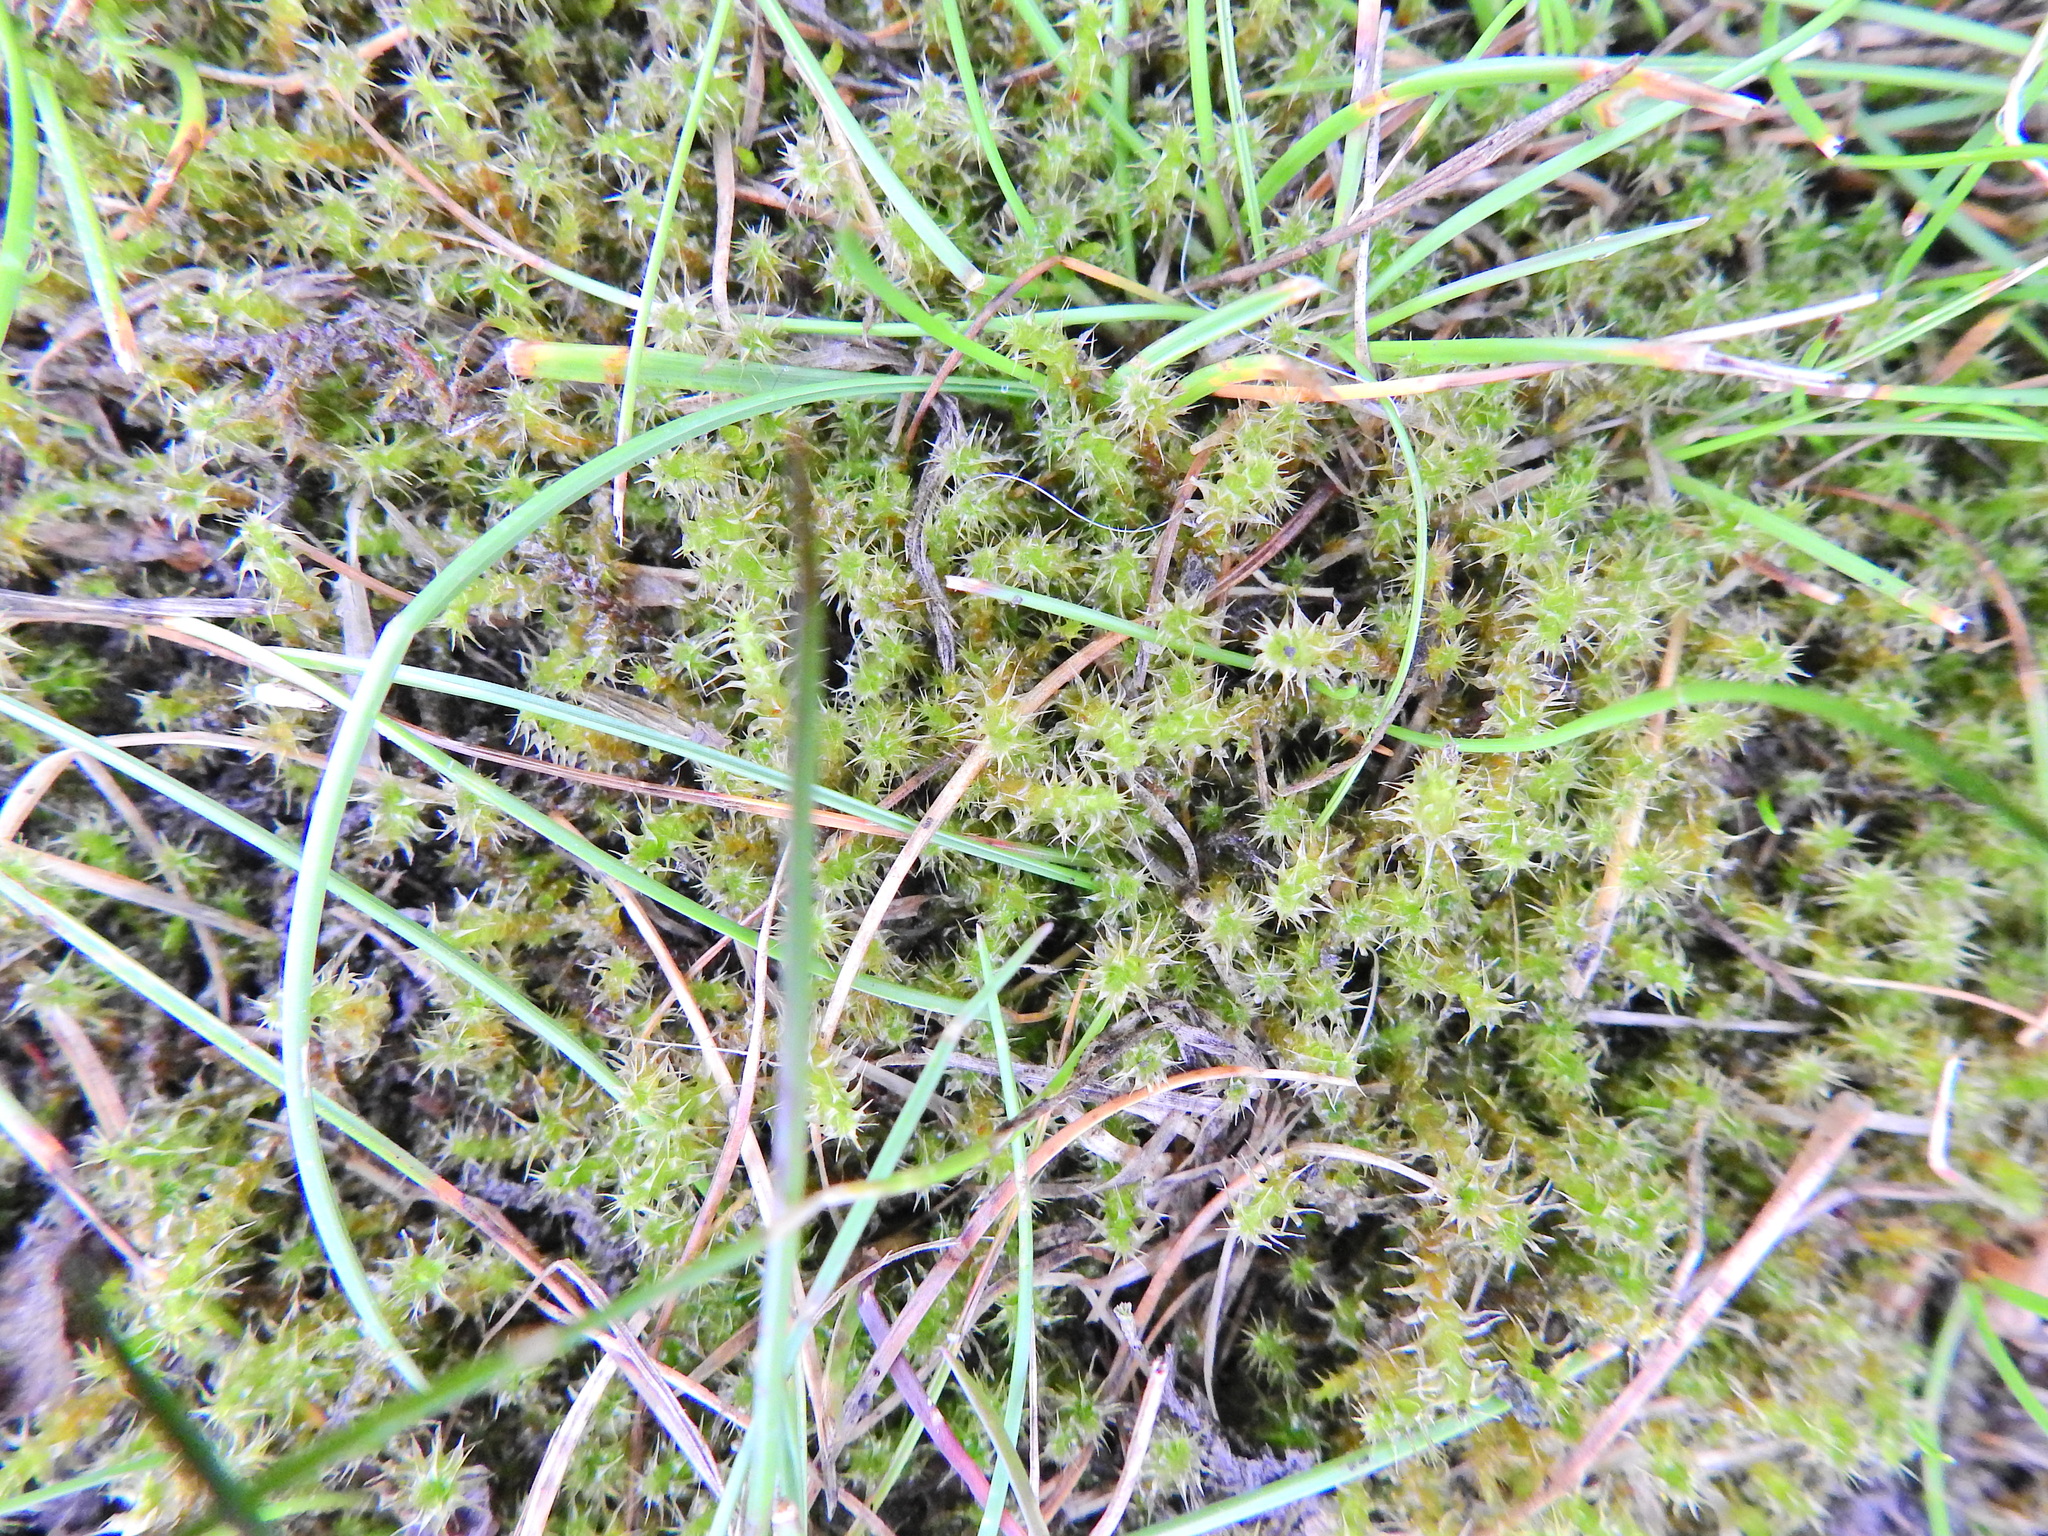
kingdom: Plantae
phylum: Bryophyta
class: Bryopsida
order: Hypnales
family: Hylocomiaceae
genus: Rhytidiadelphus
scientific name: Rhytidiadelphus squarrosus
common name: Springy turf-moss
